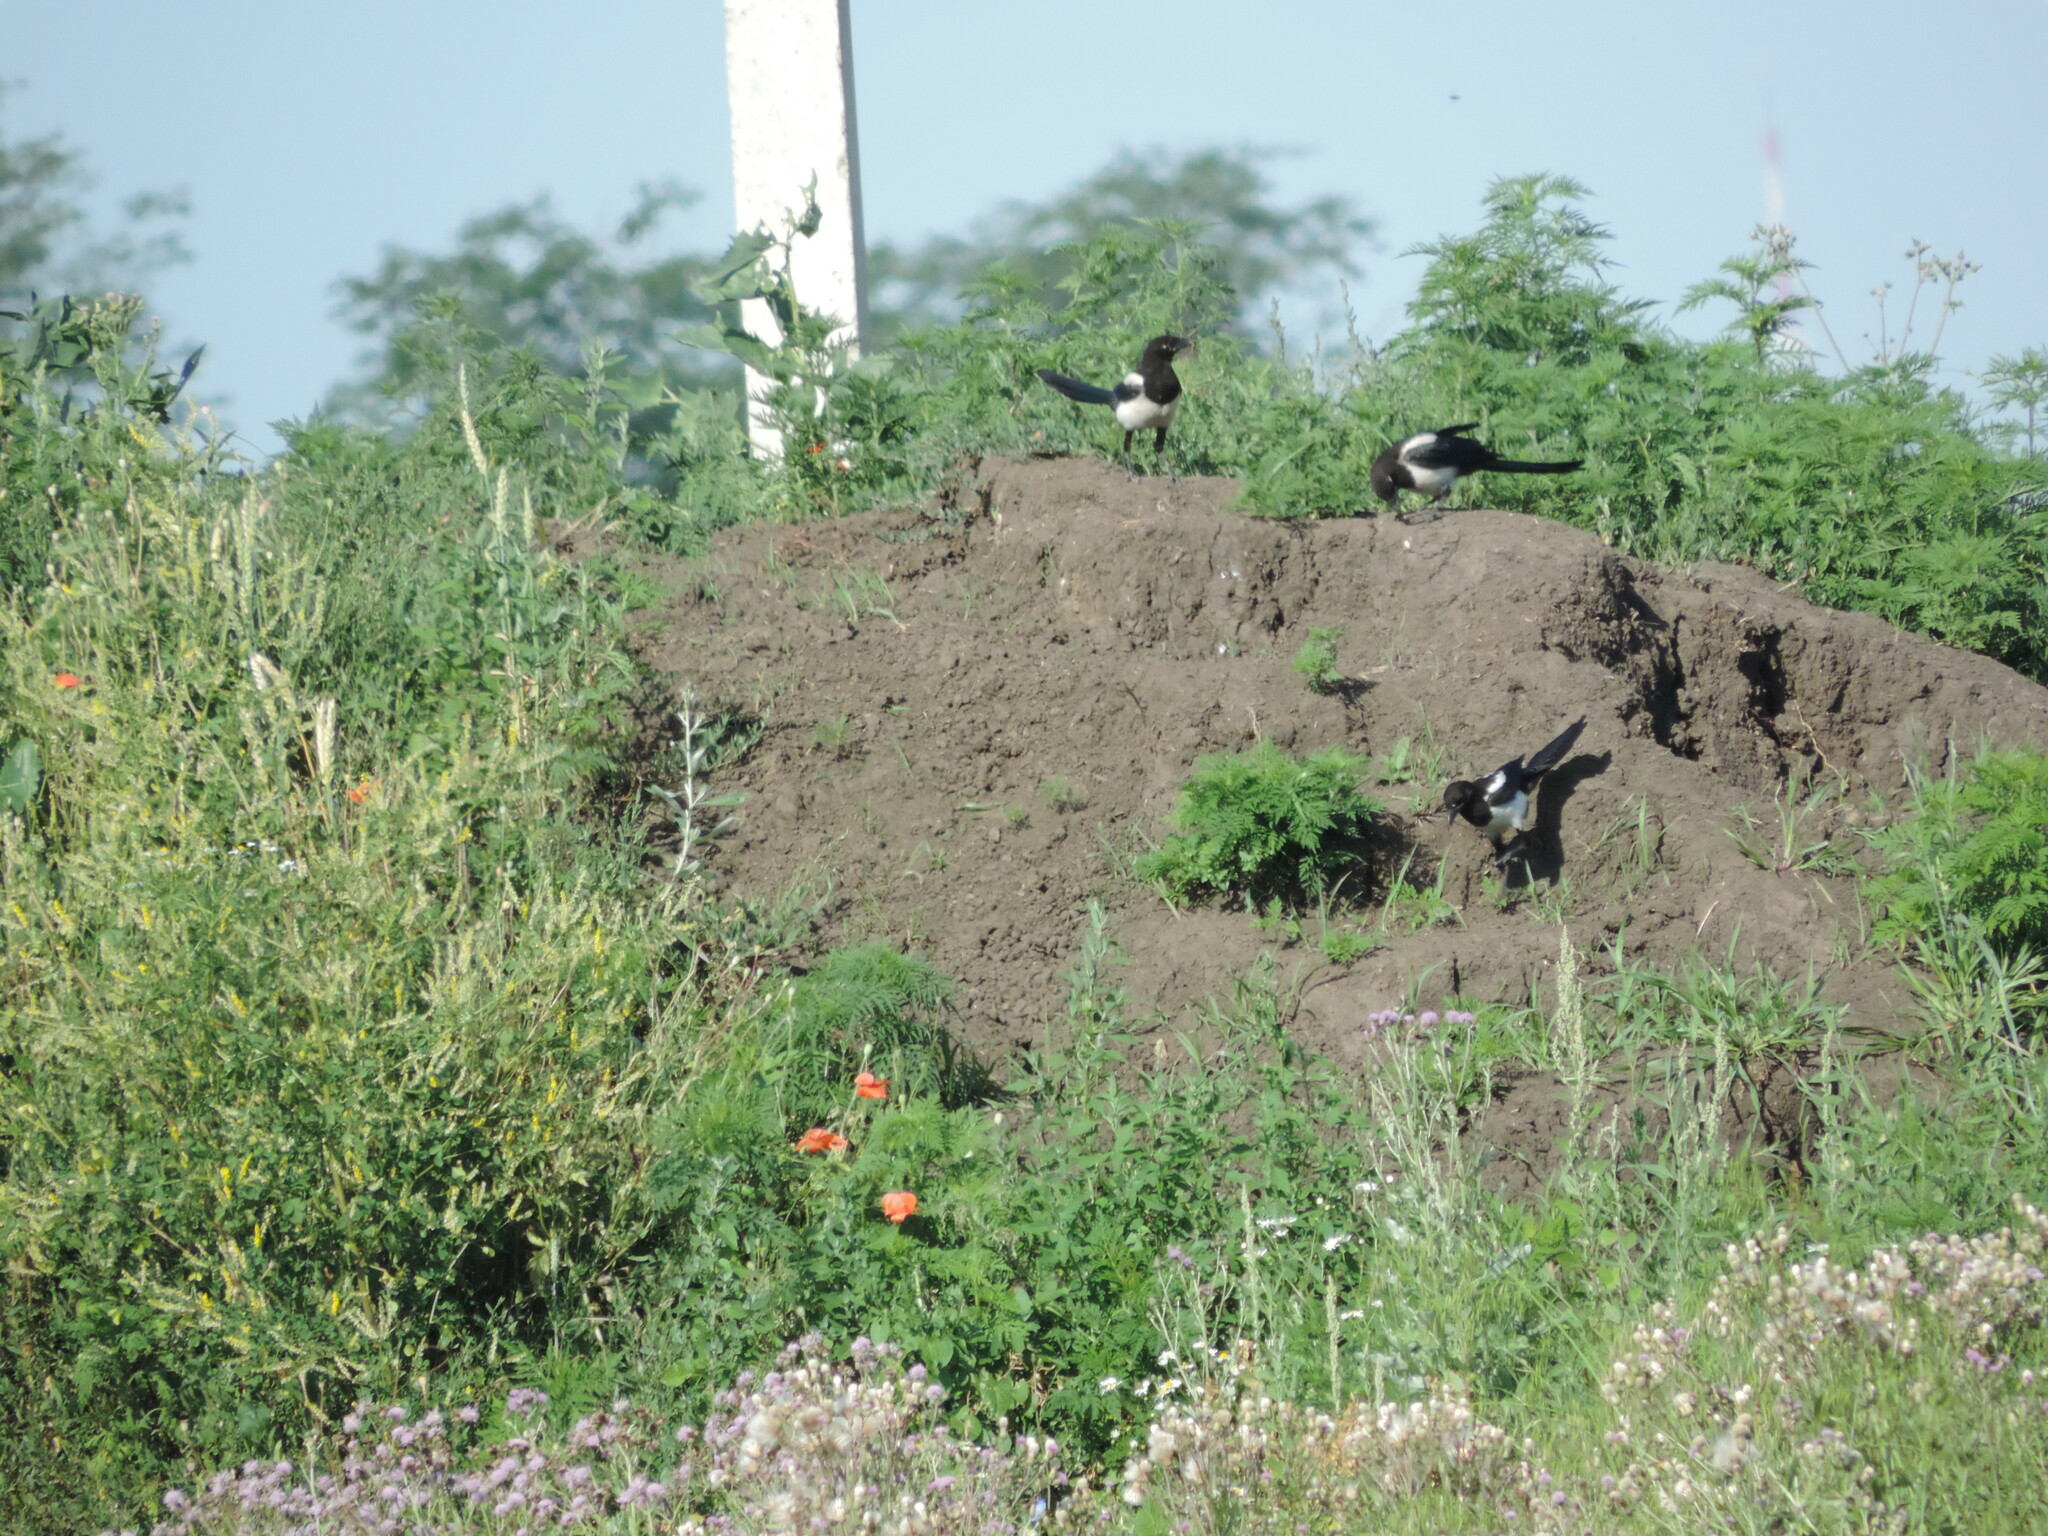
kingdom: Animalia
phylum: Chordata
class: Aves
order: Passeriformes
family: Corvidae
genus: Pica
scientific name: Pica pica
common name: Eurasian magpie
